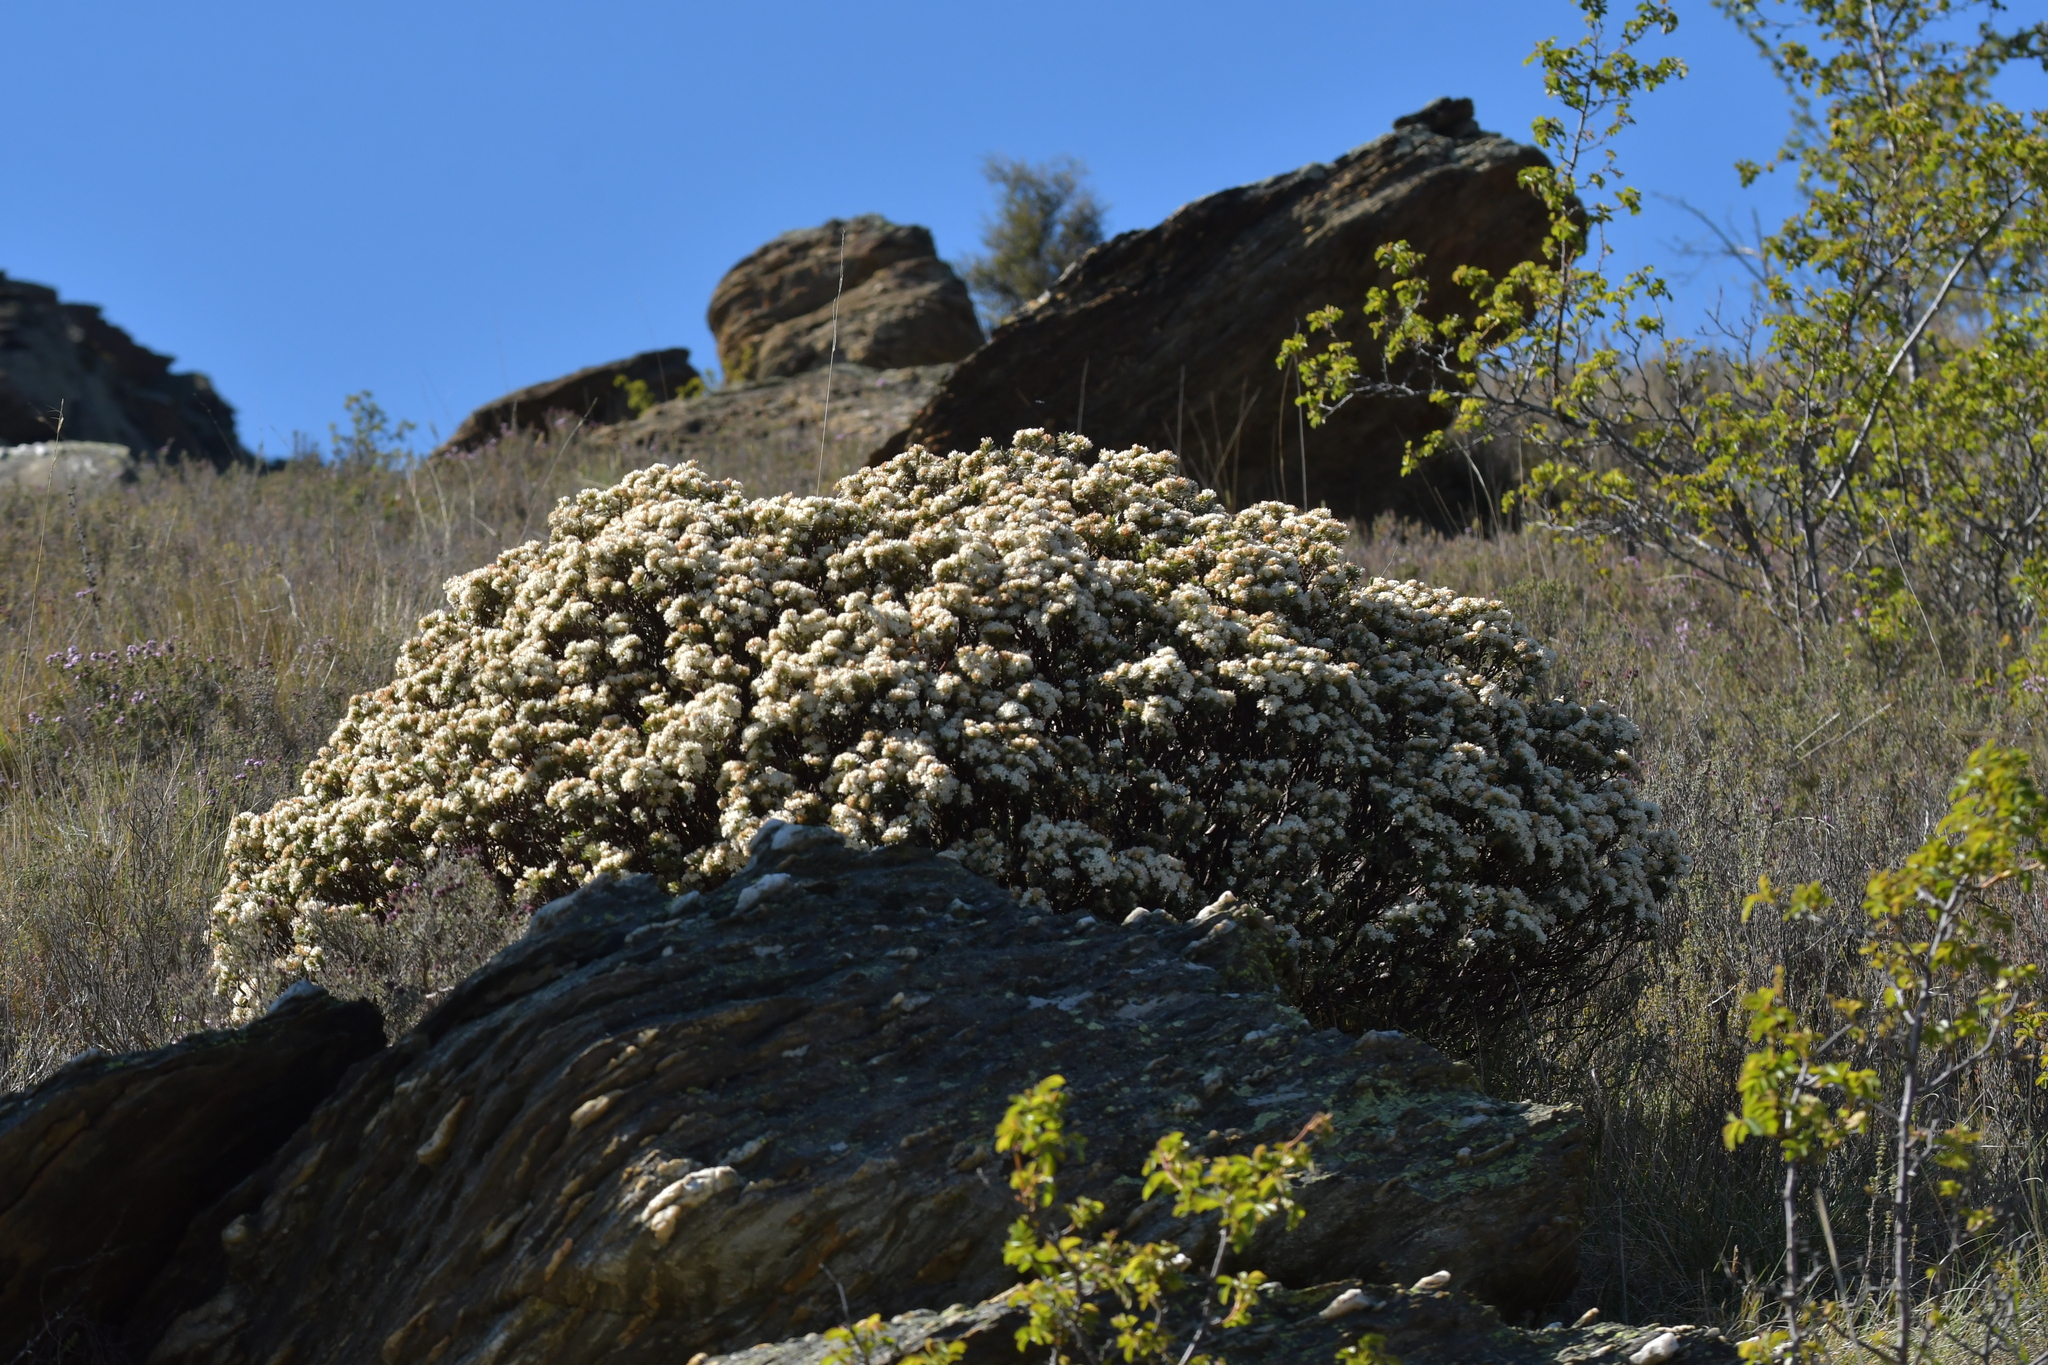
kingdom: Plantae
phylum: Tracheophyta
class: Magnoliopsida
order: Malvales
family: Thymelaeaceae
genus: Pimelea
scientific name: Pimelea aridula
